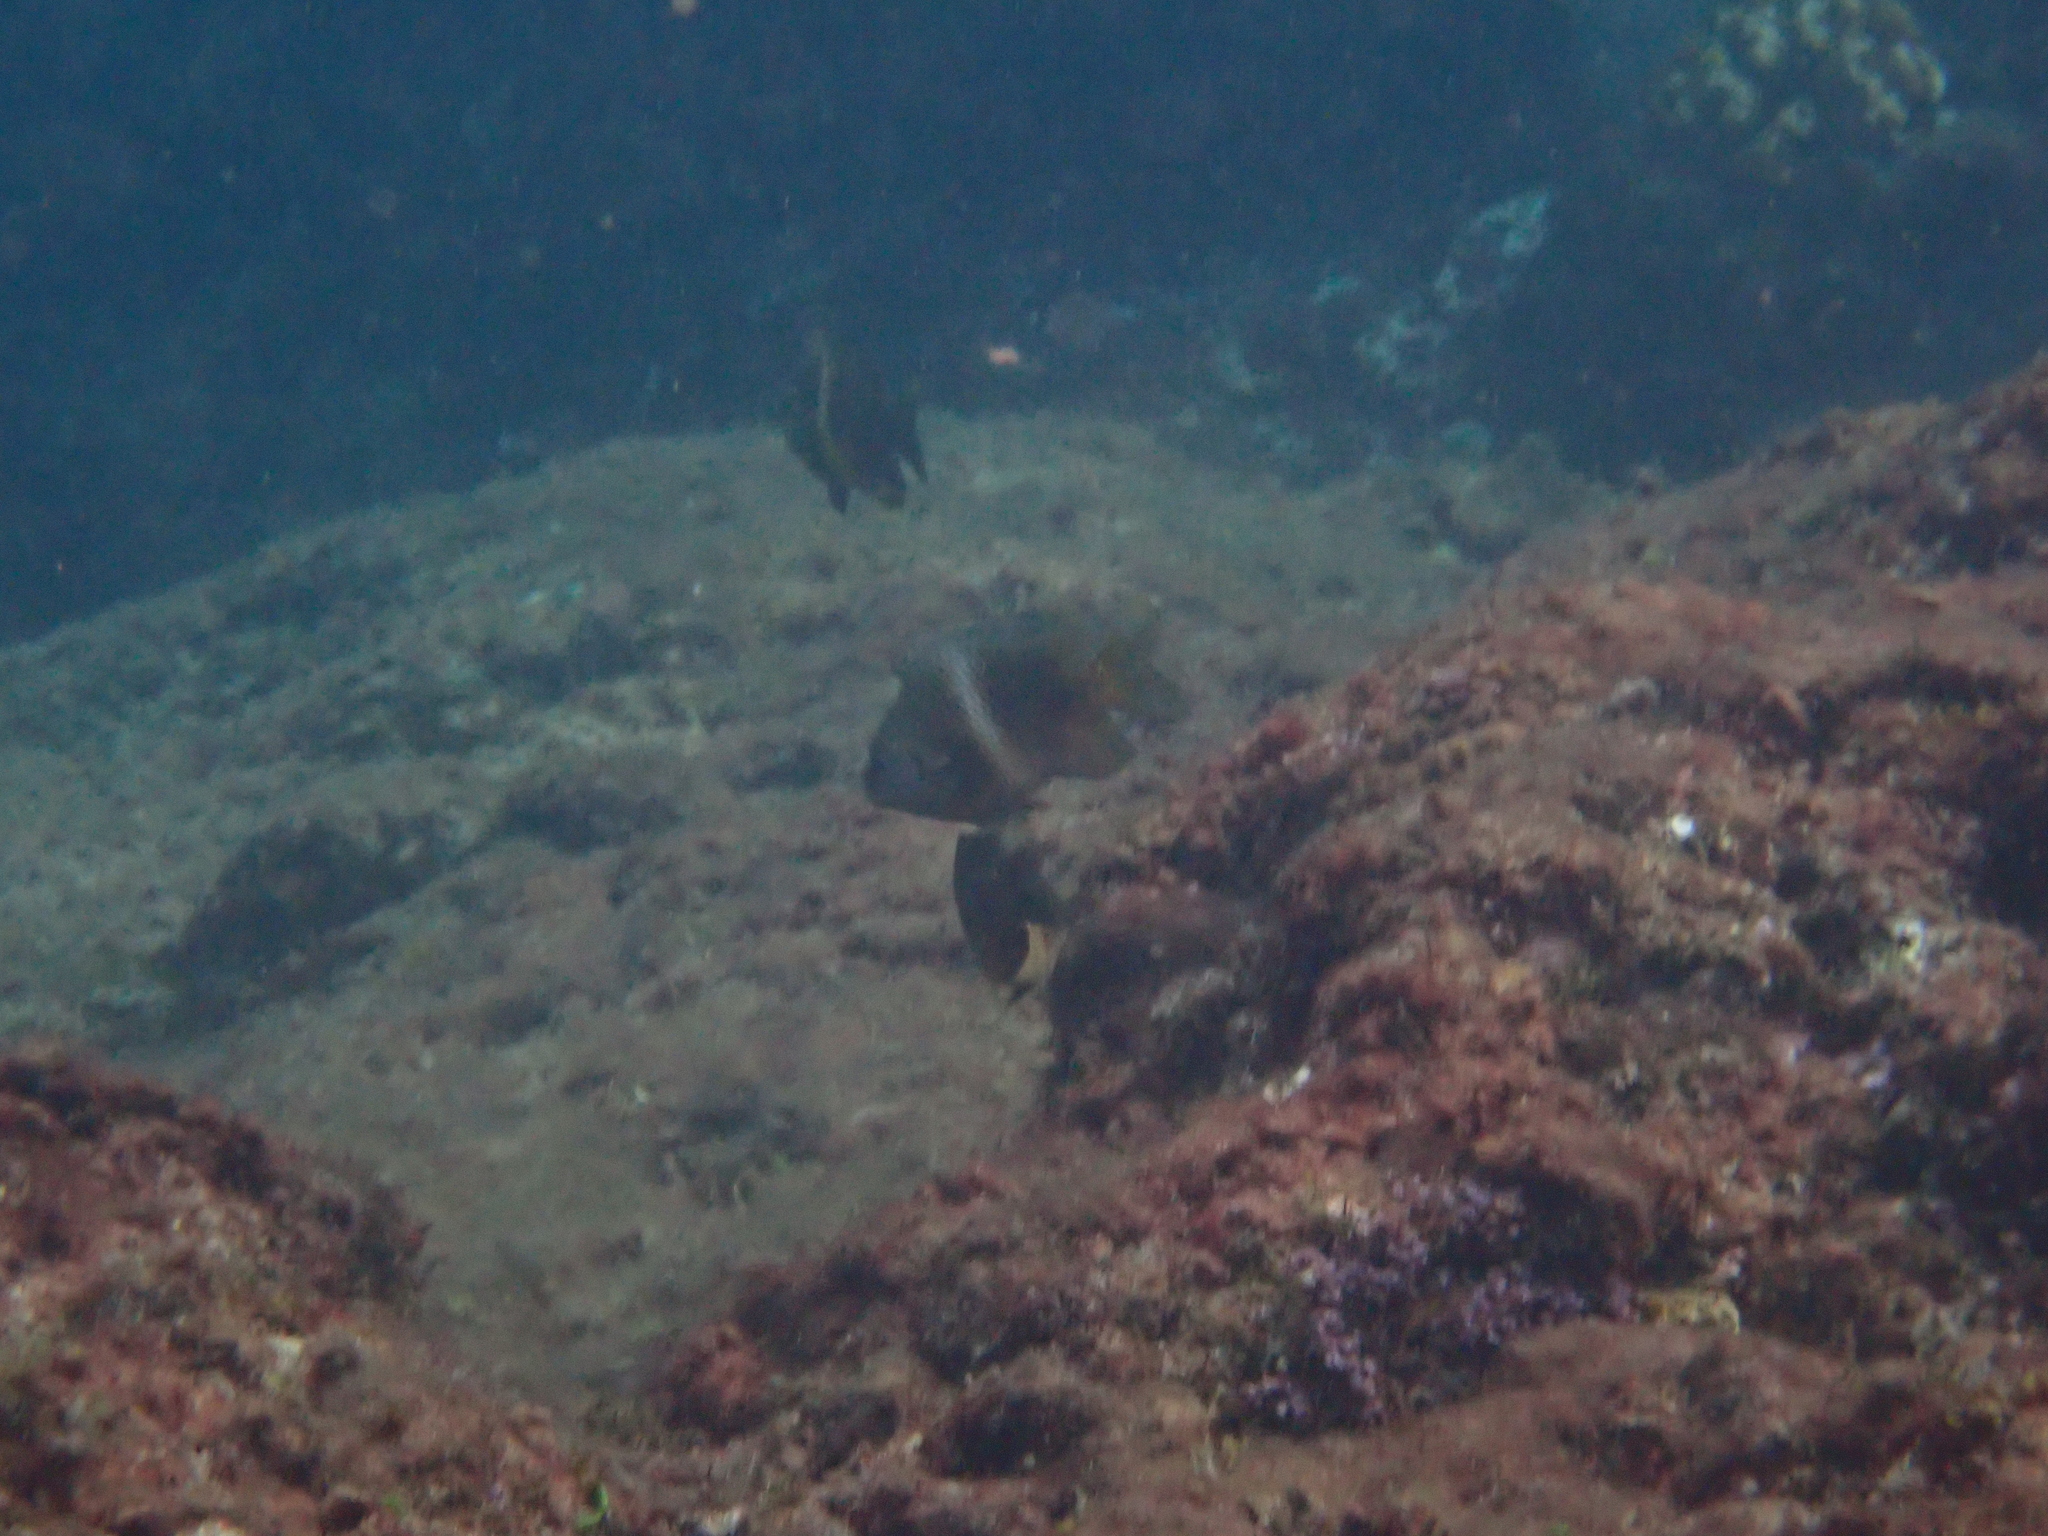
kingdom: Animalia
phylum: Chordata
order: Perciformes
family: Pomacentridae
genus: Plectroglyphidodon
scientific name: Plectroglyphidodon leucozonus
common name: White-band damsel
